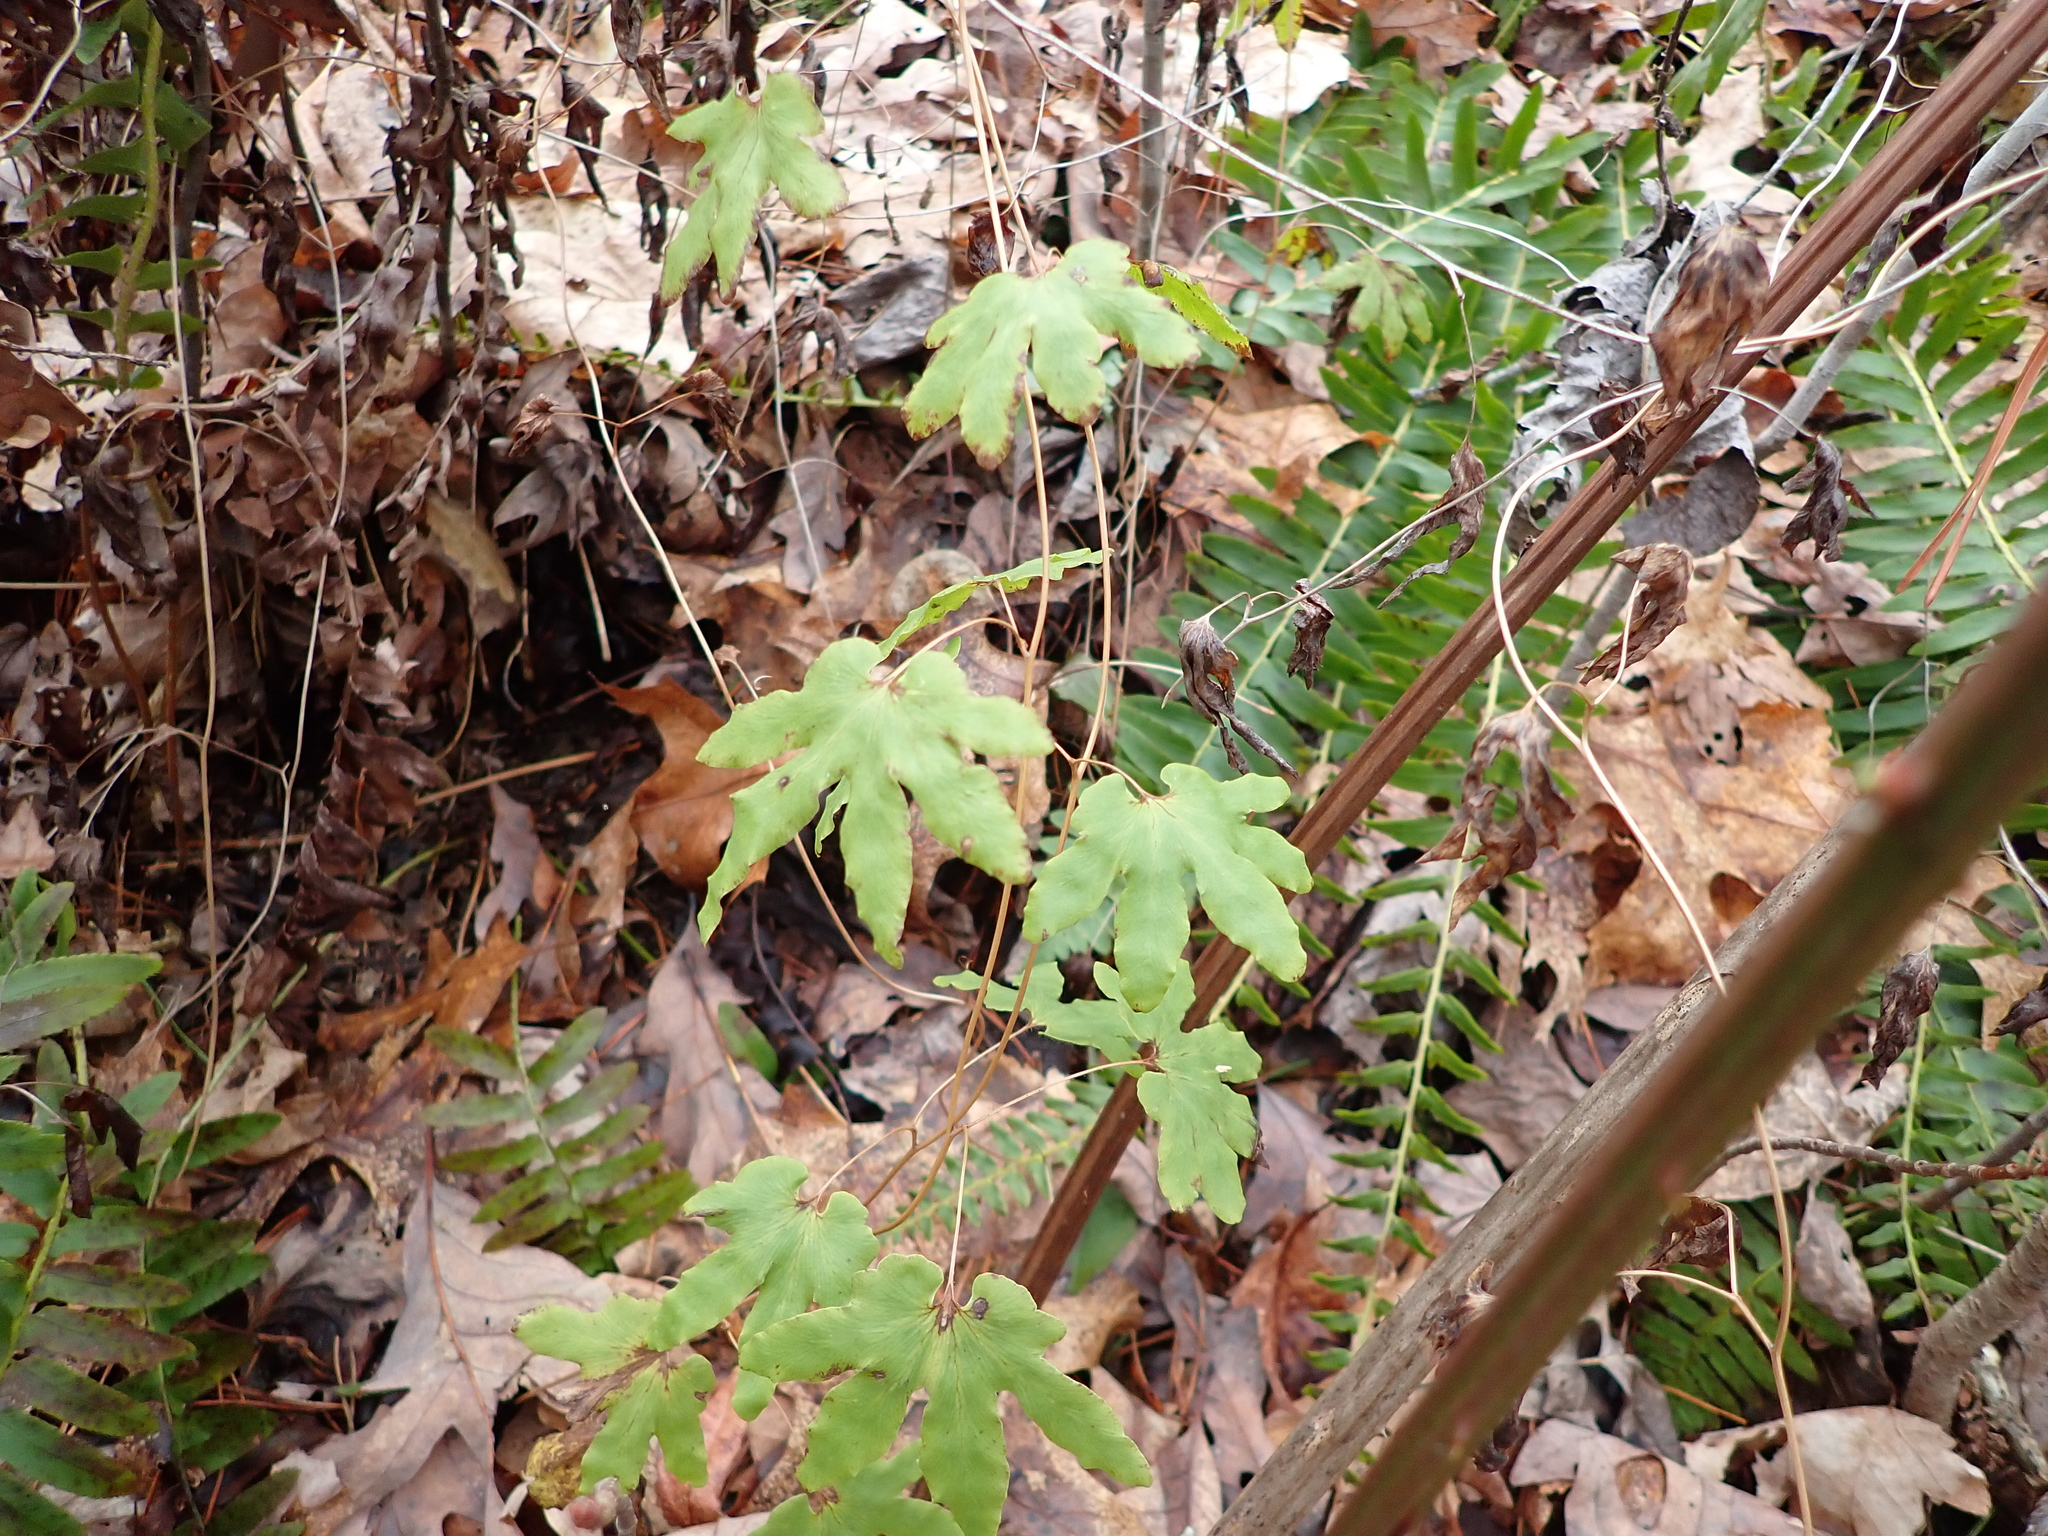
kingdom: Plantae
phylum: Tracheophyta
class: Polypodiopsida
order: Schizaeales
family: Lygodiaceae
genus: Lygodium
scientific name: Lygodium palmatum
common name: American climbing fern
